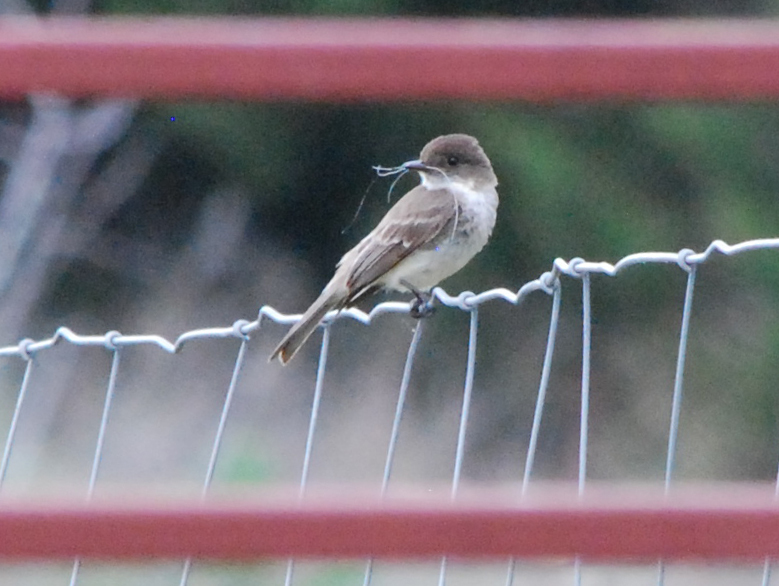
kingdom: Animalia
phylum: Chordata
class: Aves
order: Passeriformes
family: Tyrannidae
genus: Sayornis
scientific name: Sayornis phoebe
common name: Eastern phoebe
